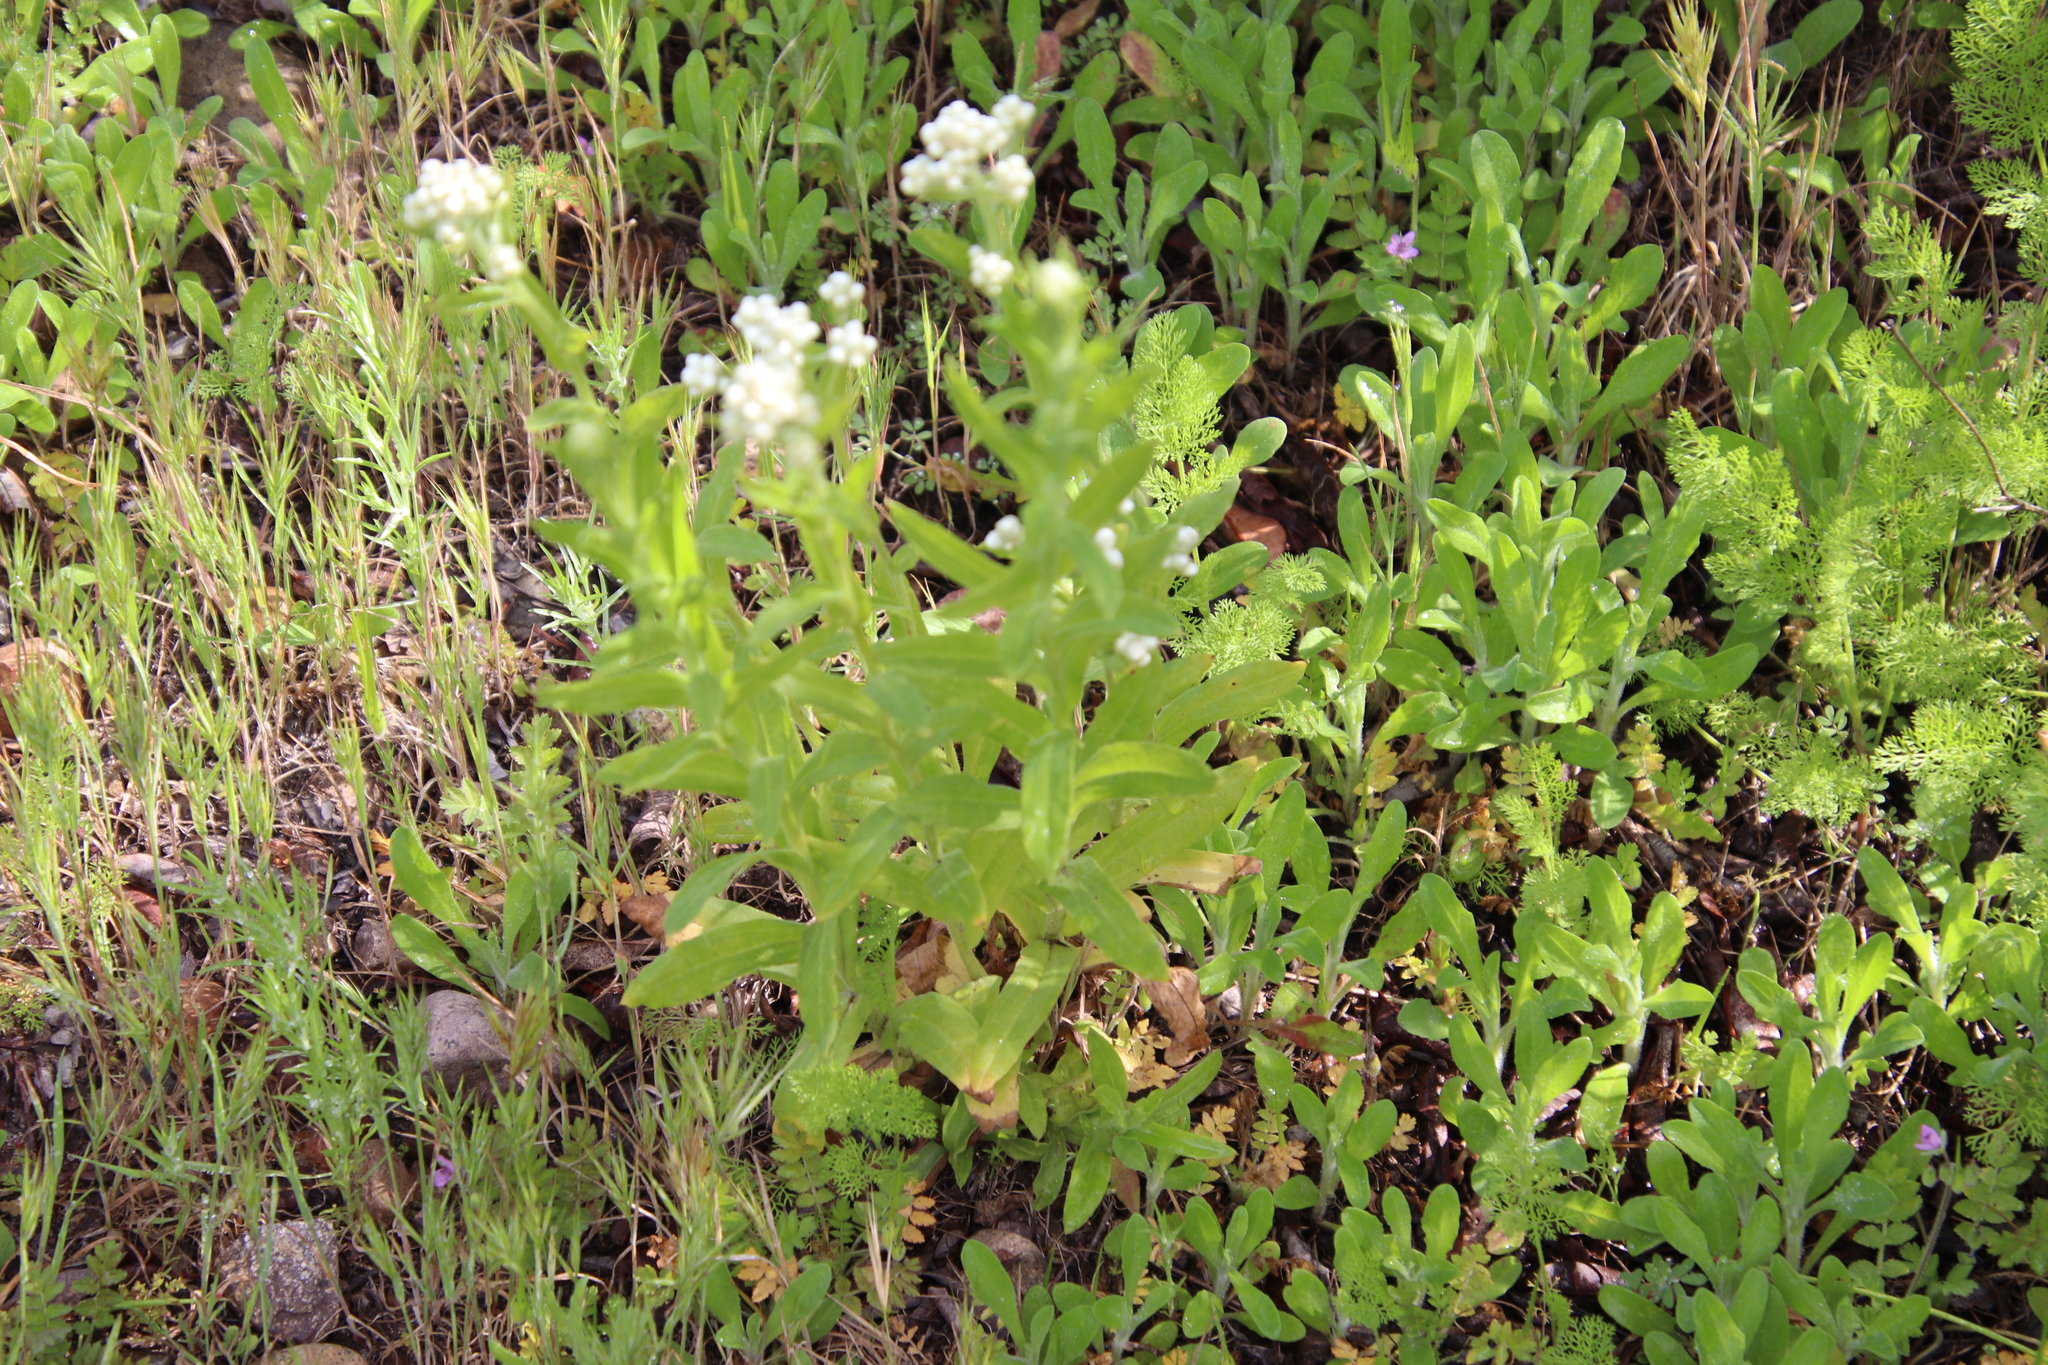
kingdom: Plantae
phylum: Tracheophyta
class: Magnoliopsida
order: Asterales
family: Asteraceae
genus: Pseudognaphalium
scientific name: Pseudognaphalium californicum
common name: California rabbit-tobacco
